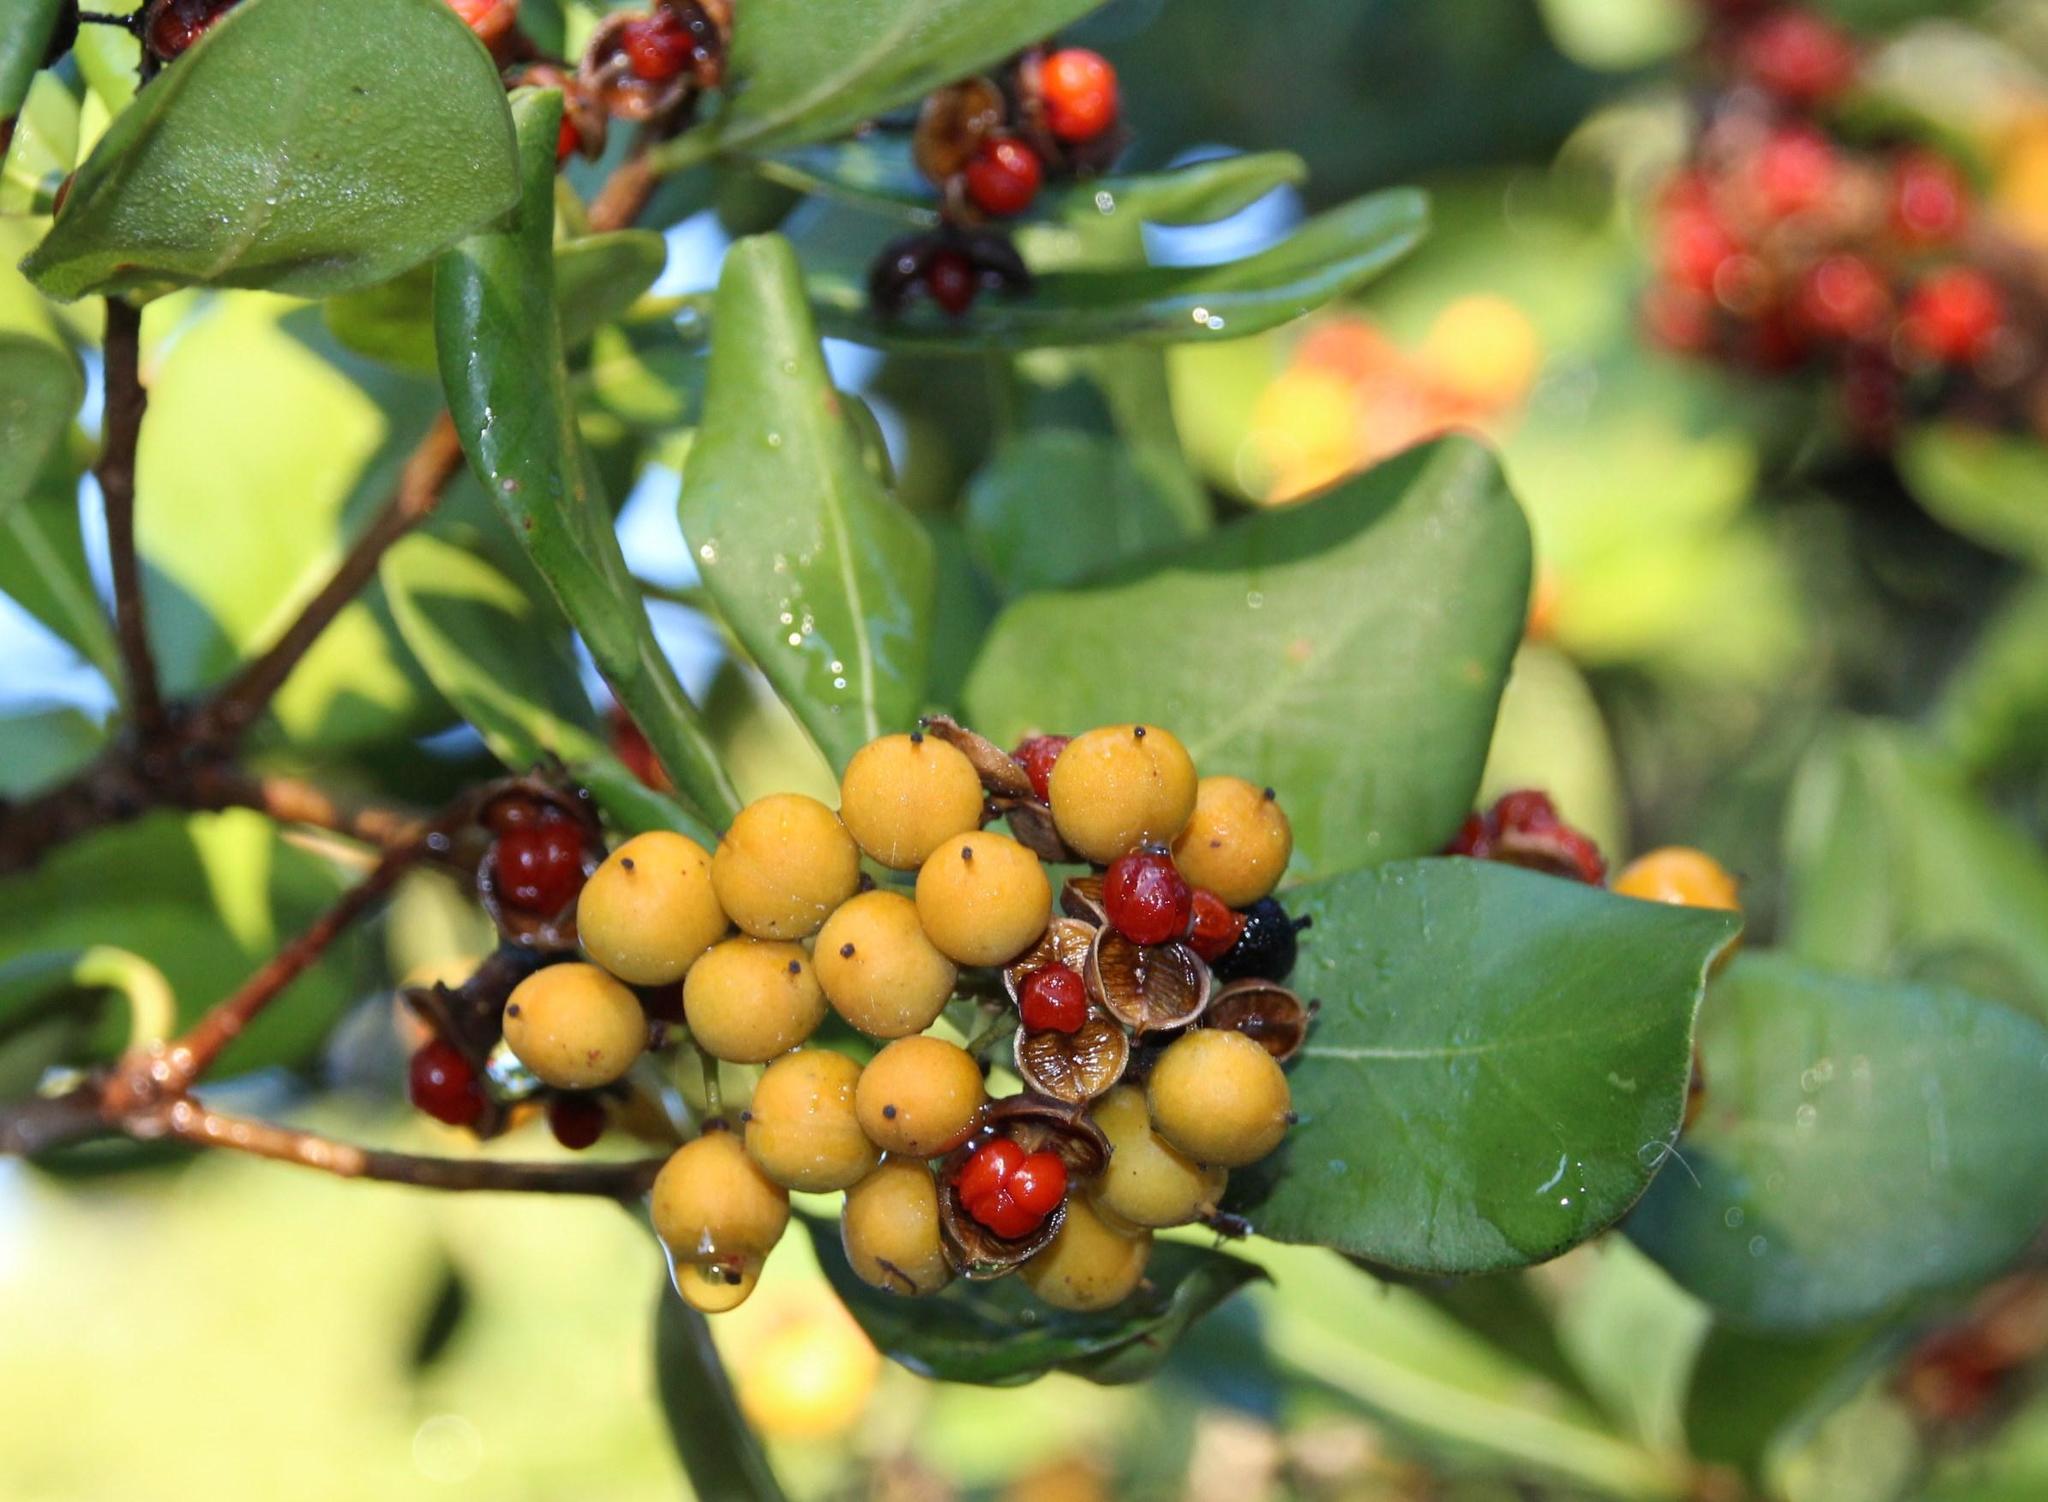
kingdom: Plantae
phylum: Tracheophyta
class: Magnoliopsida
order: Apiales
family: Pittosporaceae
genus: Pittosporum
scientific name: Pittosporum viridiflorum
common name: Cape cheesewood
